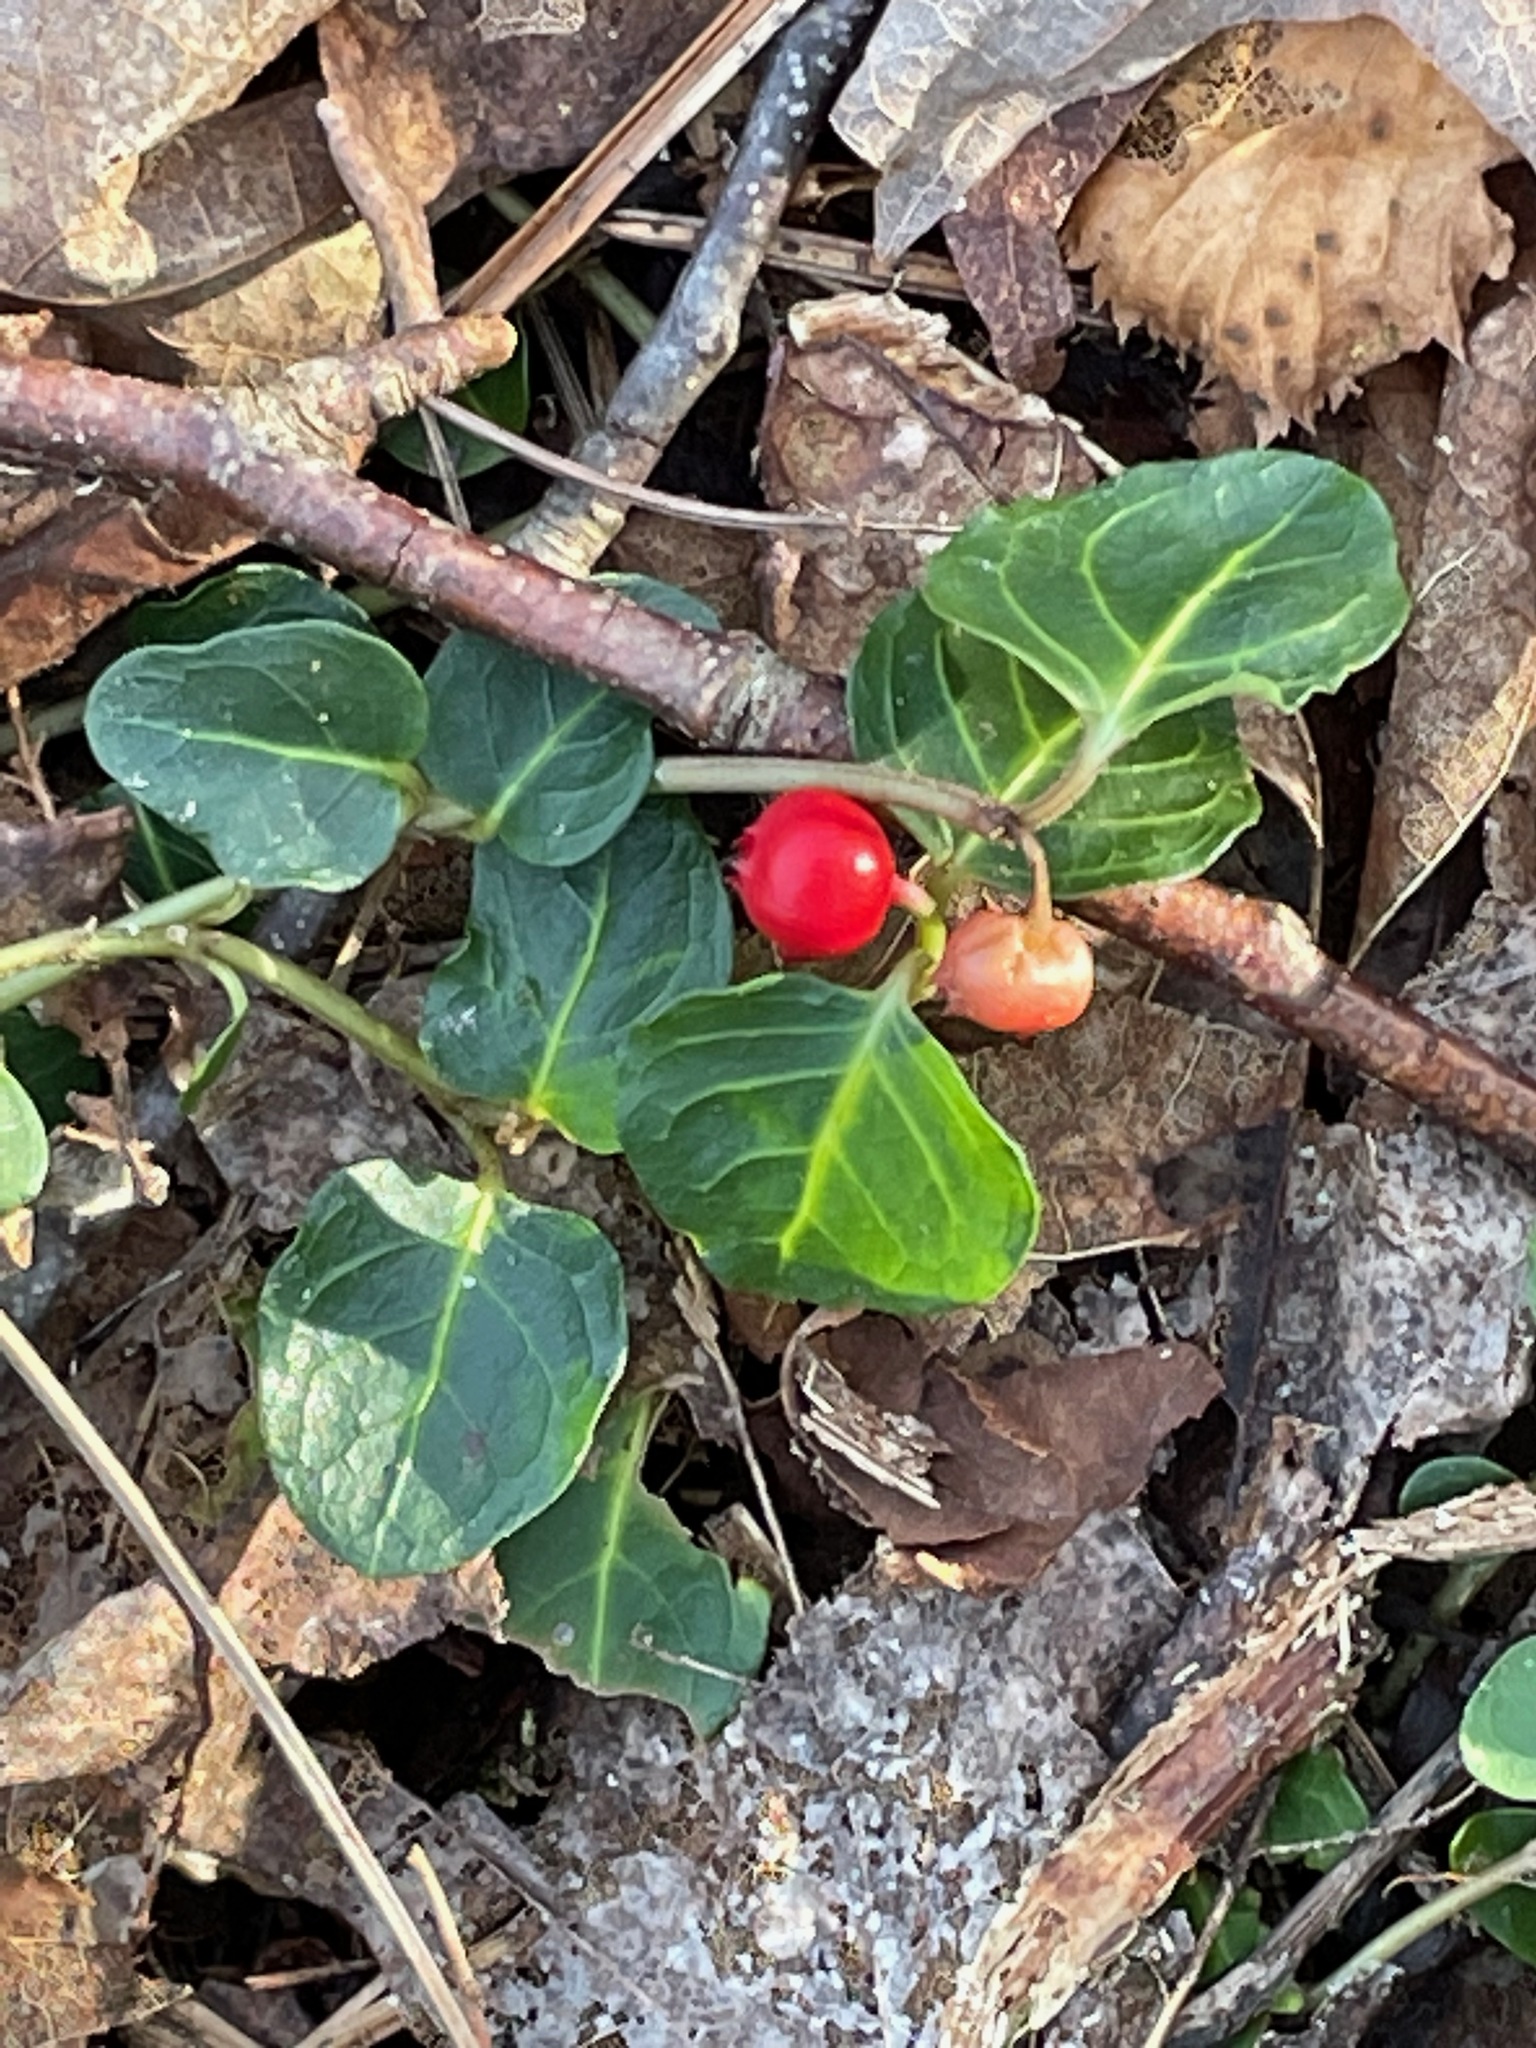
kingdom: Plantae
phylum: Tracheophyta
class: Magnoliopsida
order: Gentianales
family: Rubiaceae
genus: Mitchella
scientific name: Mitchella repens
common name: Partridge-berry
